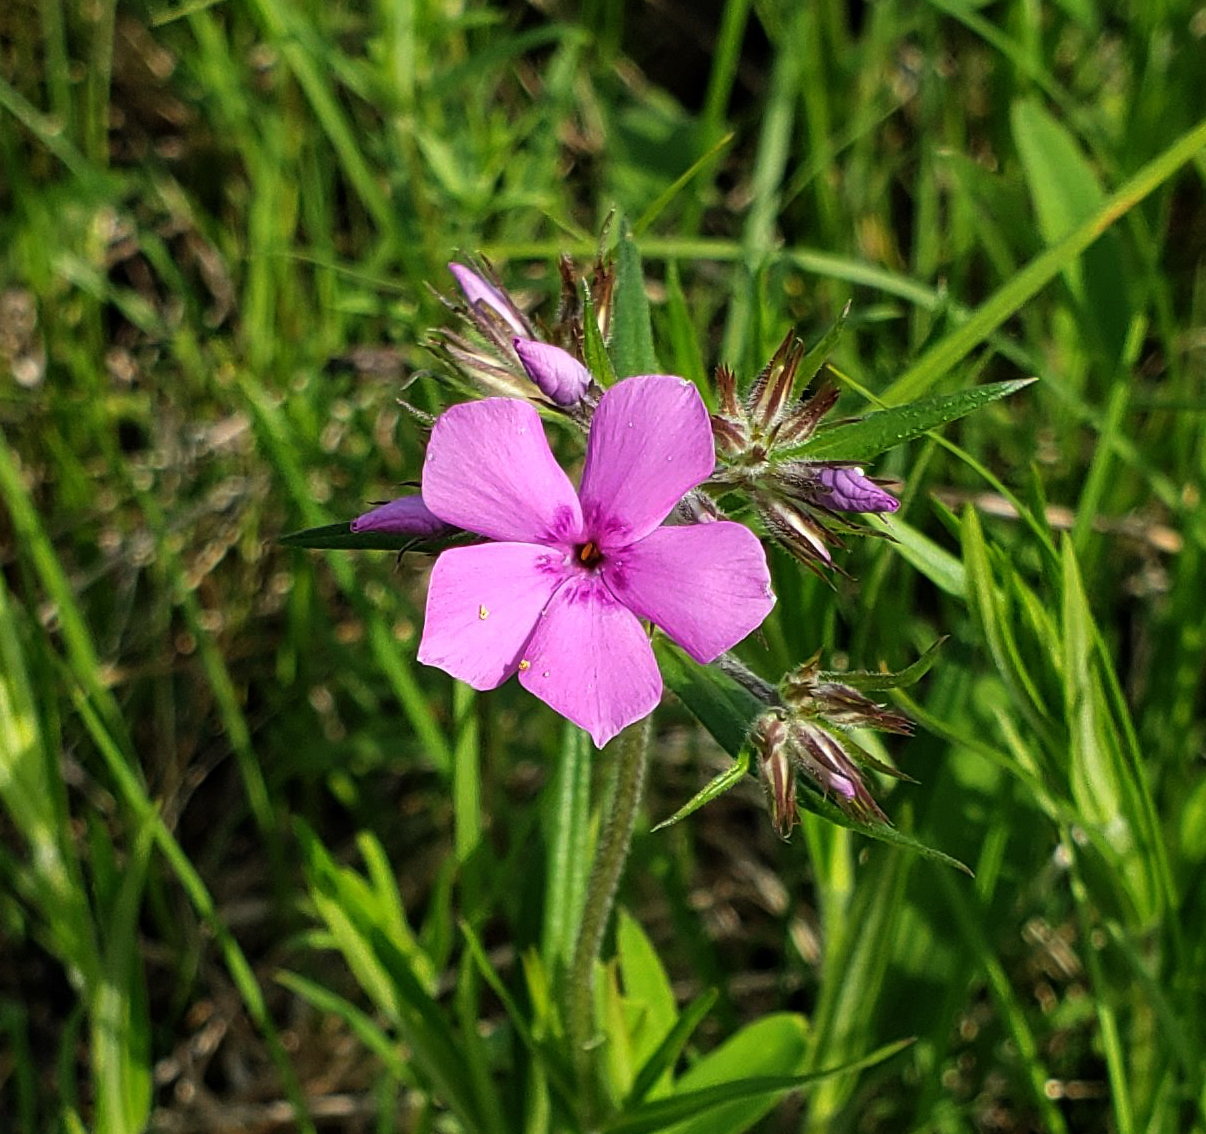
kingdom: Plantae
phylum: Tracheophyta
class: Magnoliopsida
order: Ericales
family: Polemoniaceae
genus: Phlox
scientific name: Phlox pilosa
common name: Prairie phlox
